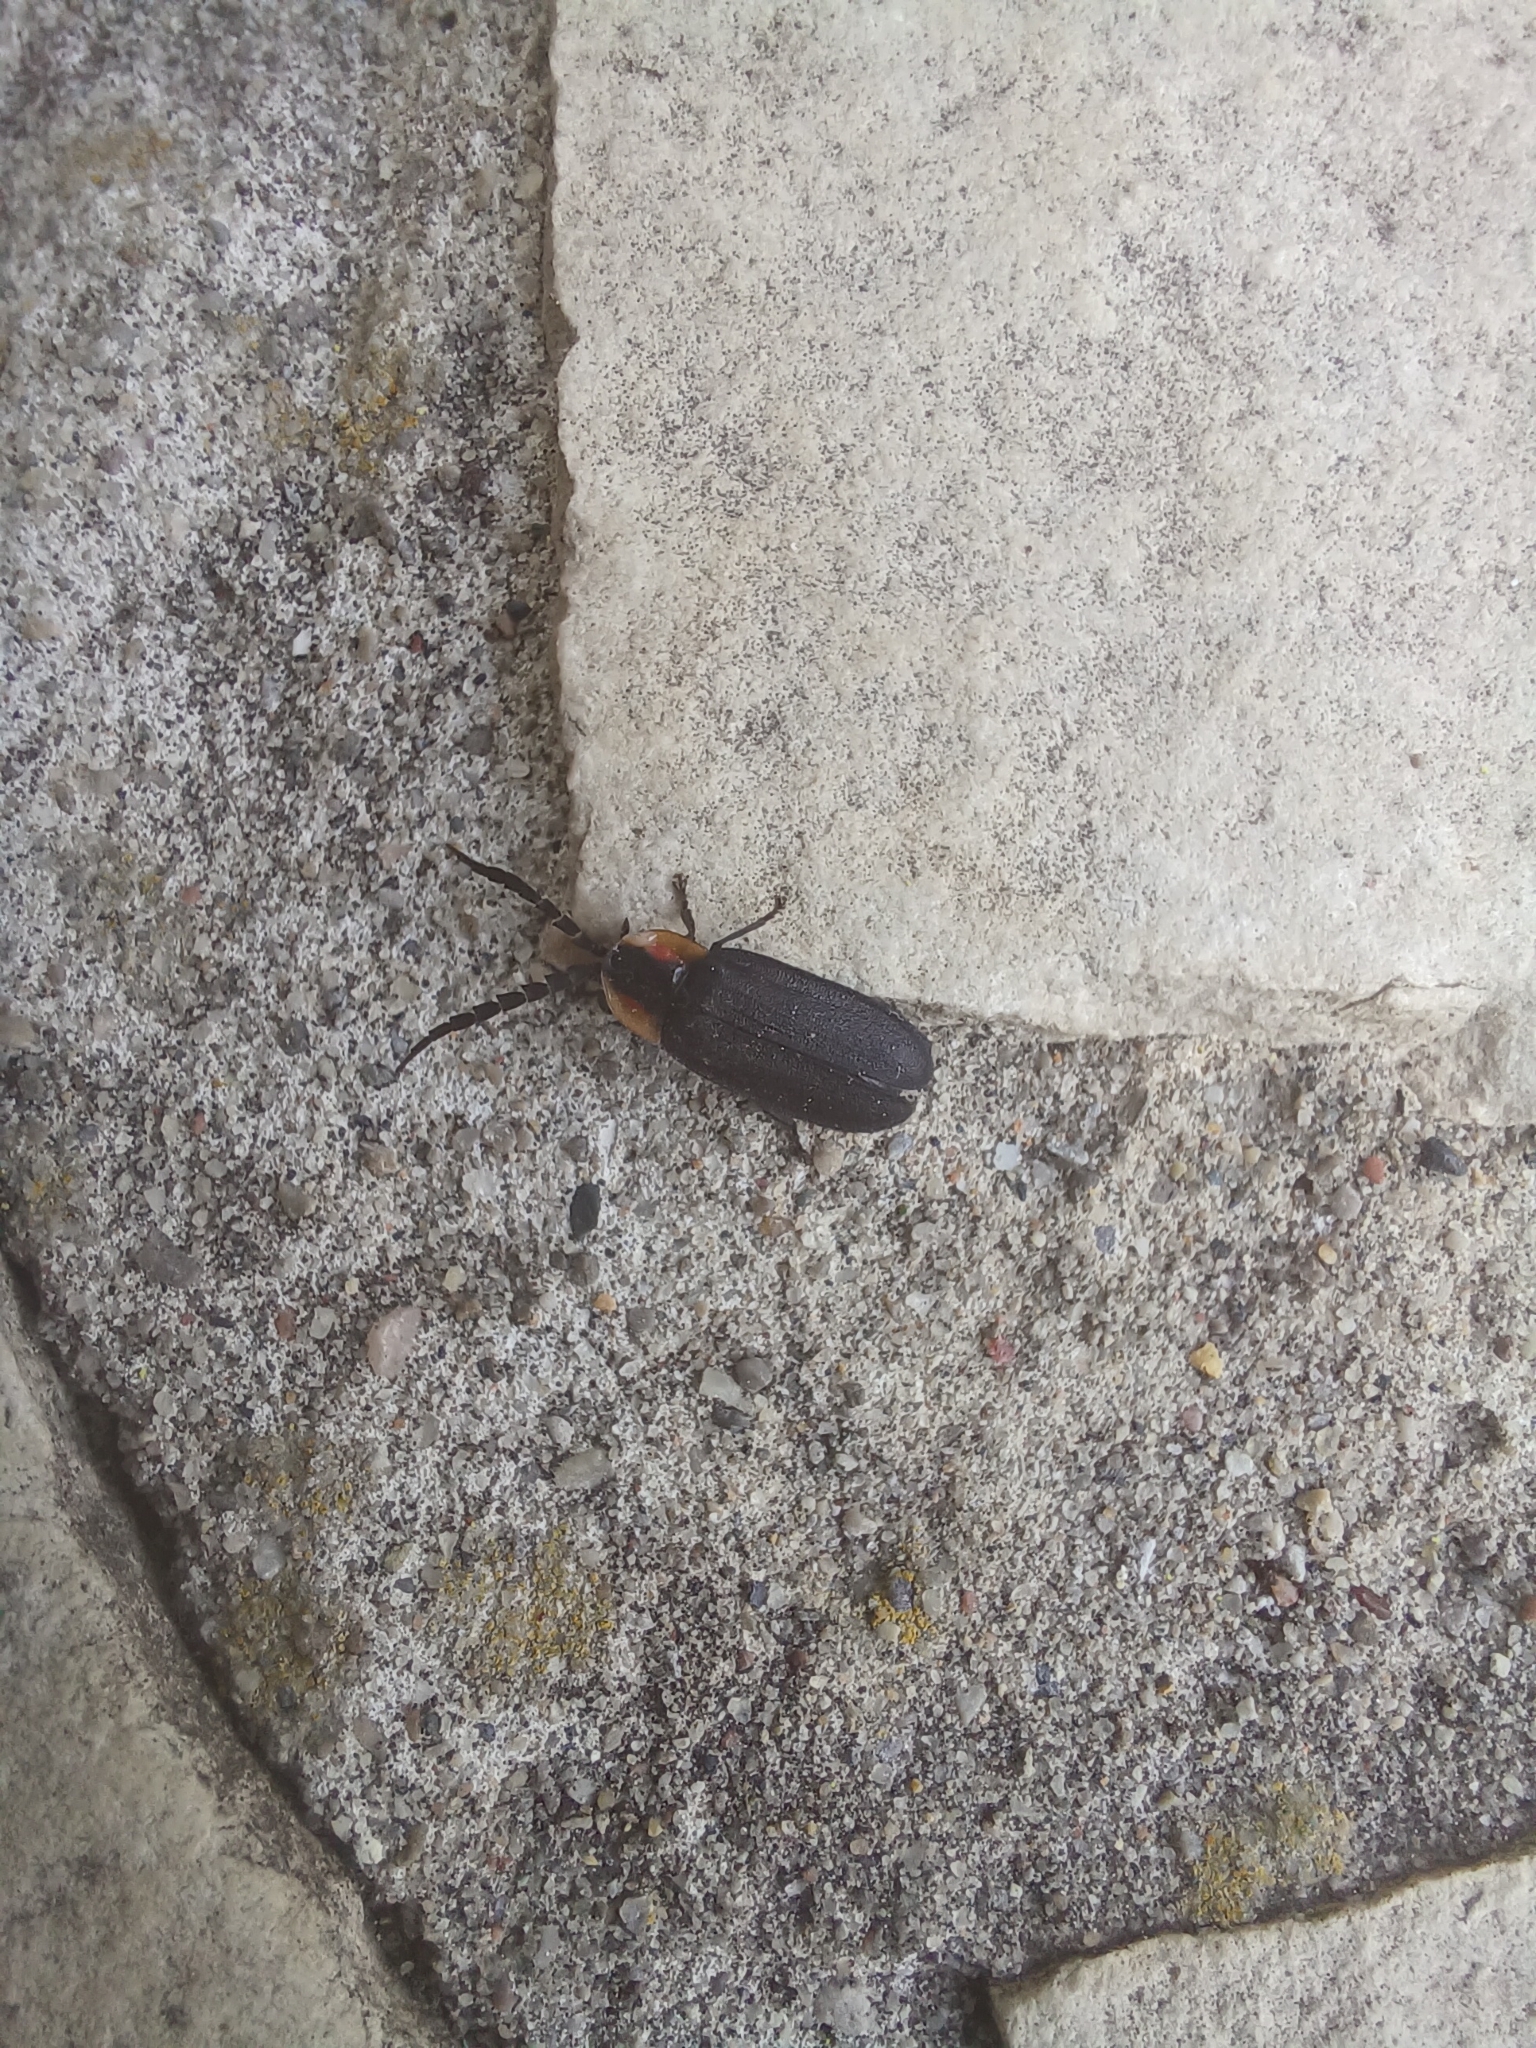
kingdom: Animalia
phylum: Arthropoda
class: Insecta
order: Coleoptera
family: Lampyridae
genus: Lucidota
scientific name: Lucidota atra
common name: Black firefly
